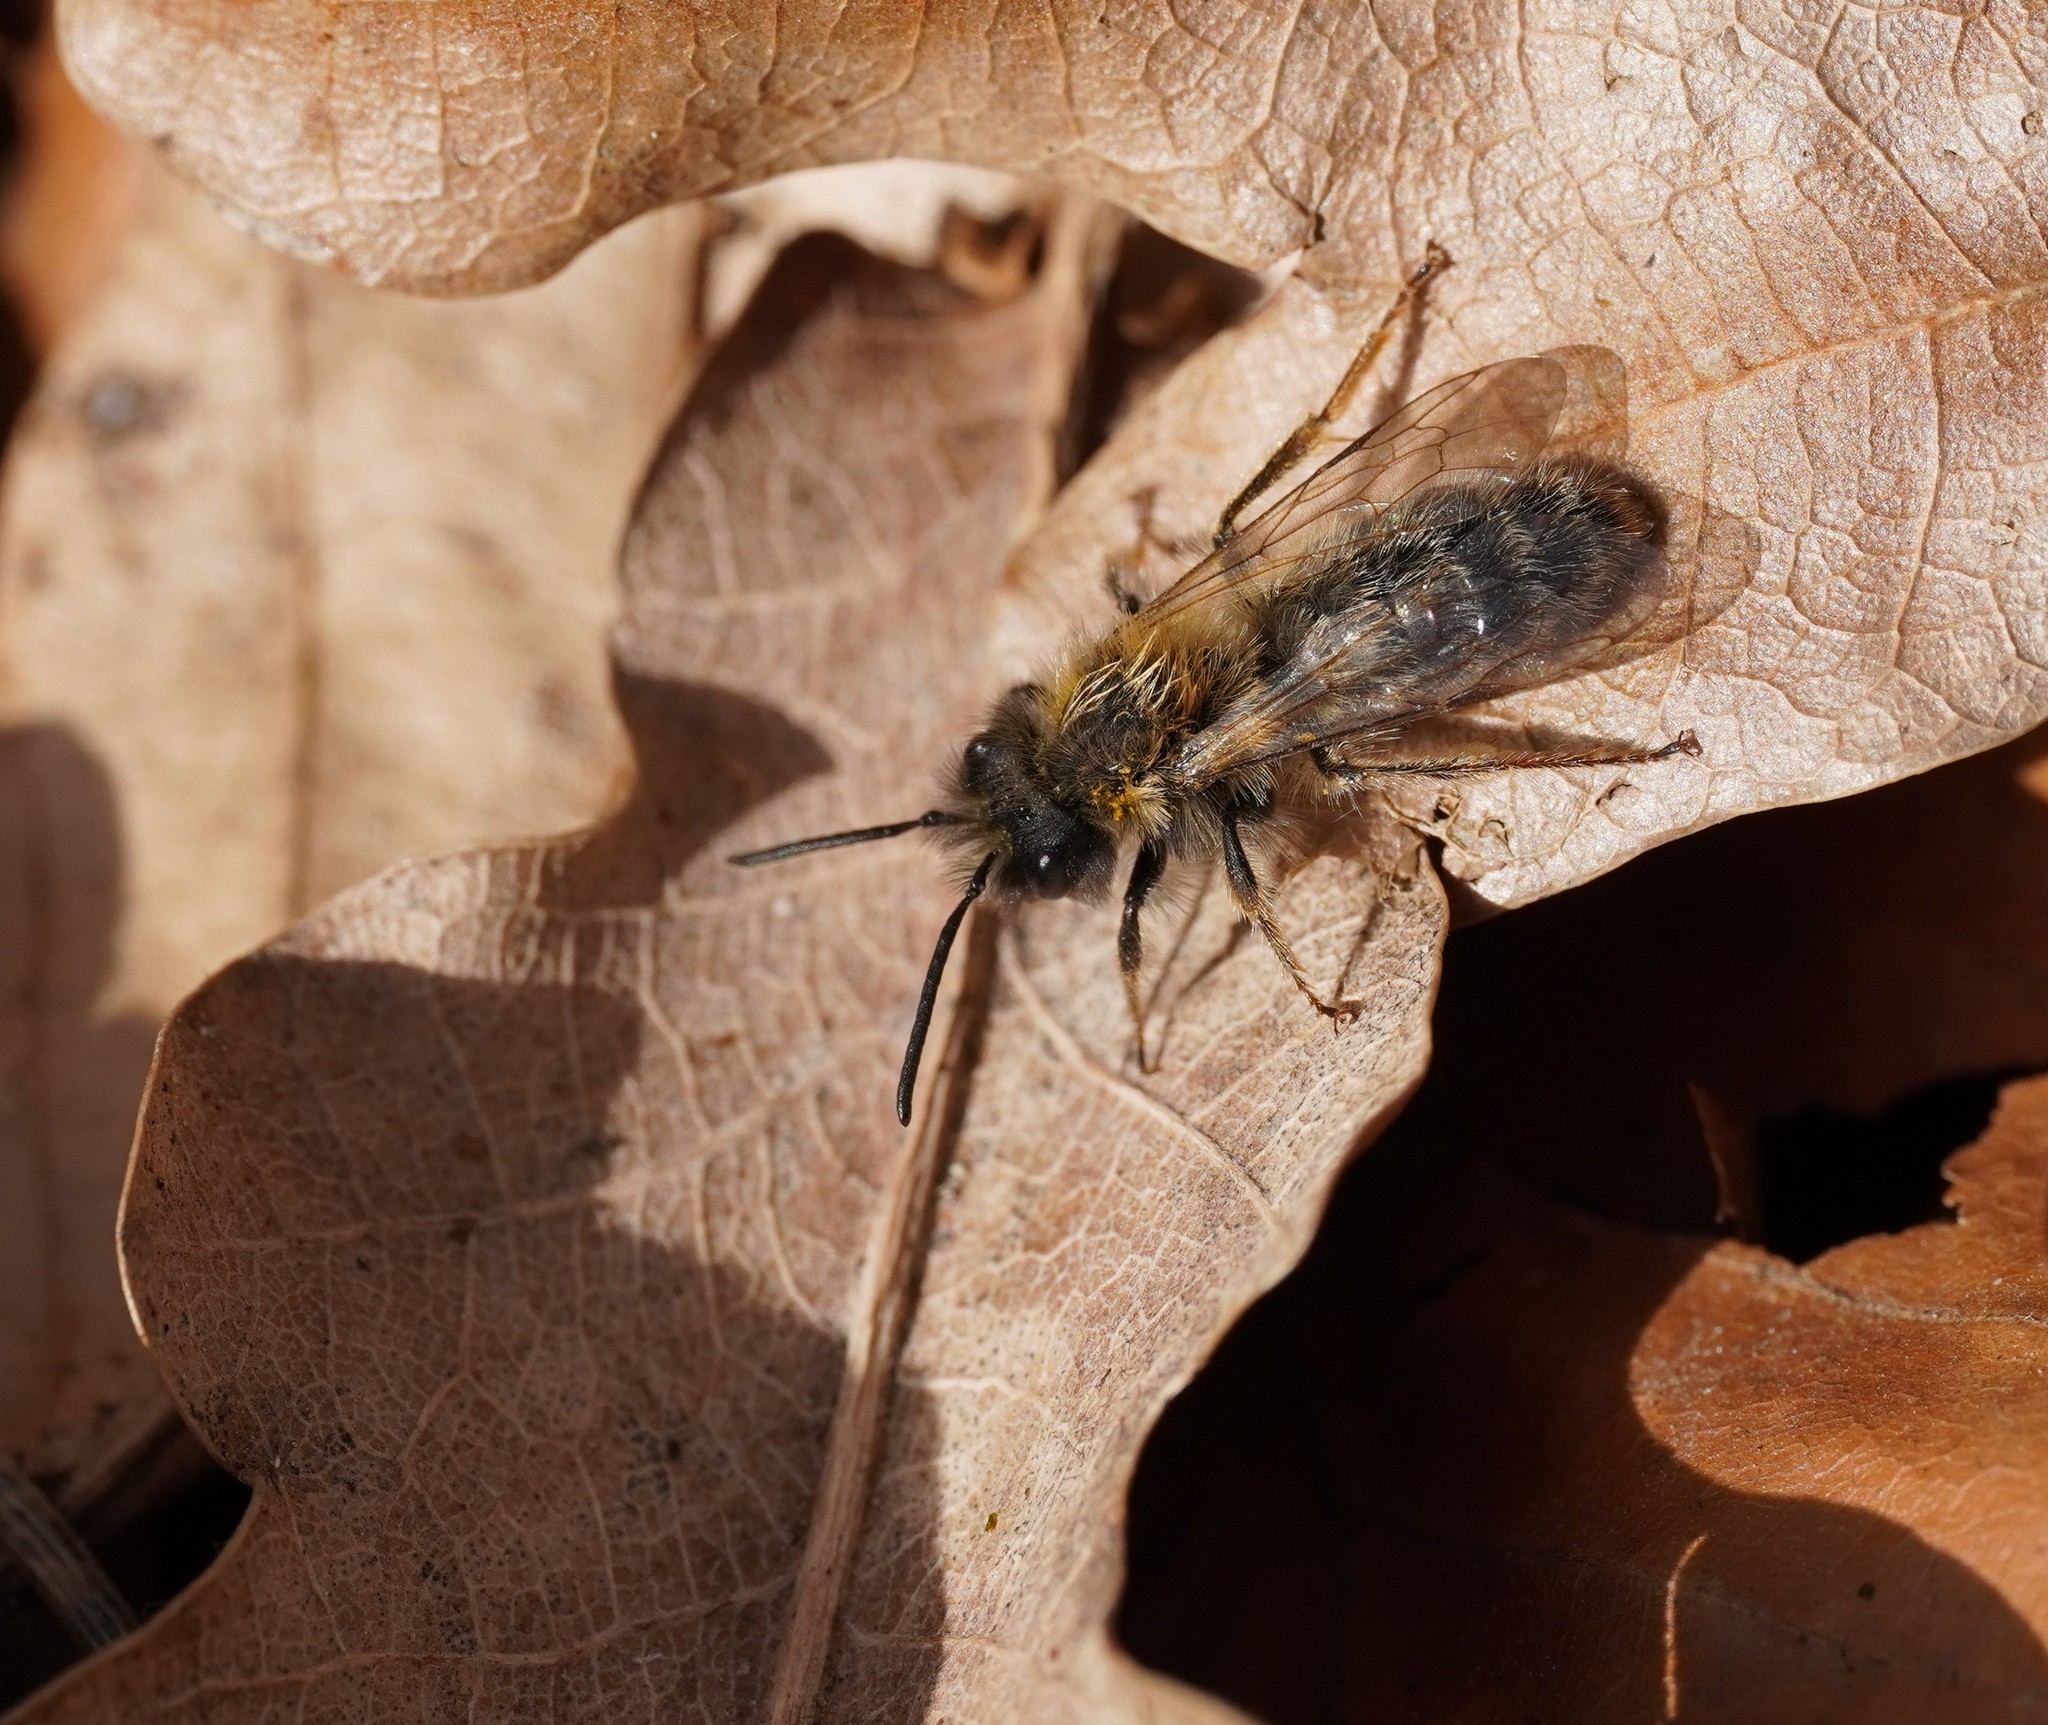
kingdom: Animalia
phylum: Arthropoda
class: Insecta
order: Hymenoptera
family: Andrenidae
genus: Andrena
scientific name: Andrena clarkella
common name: Clarke's mining bee
